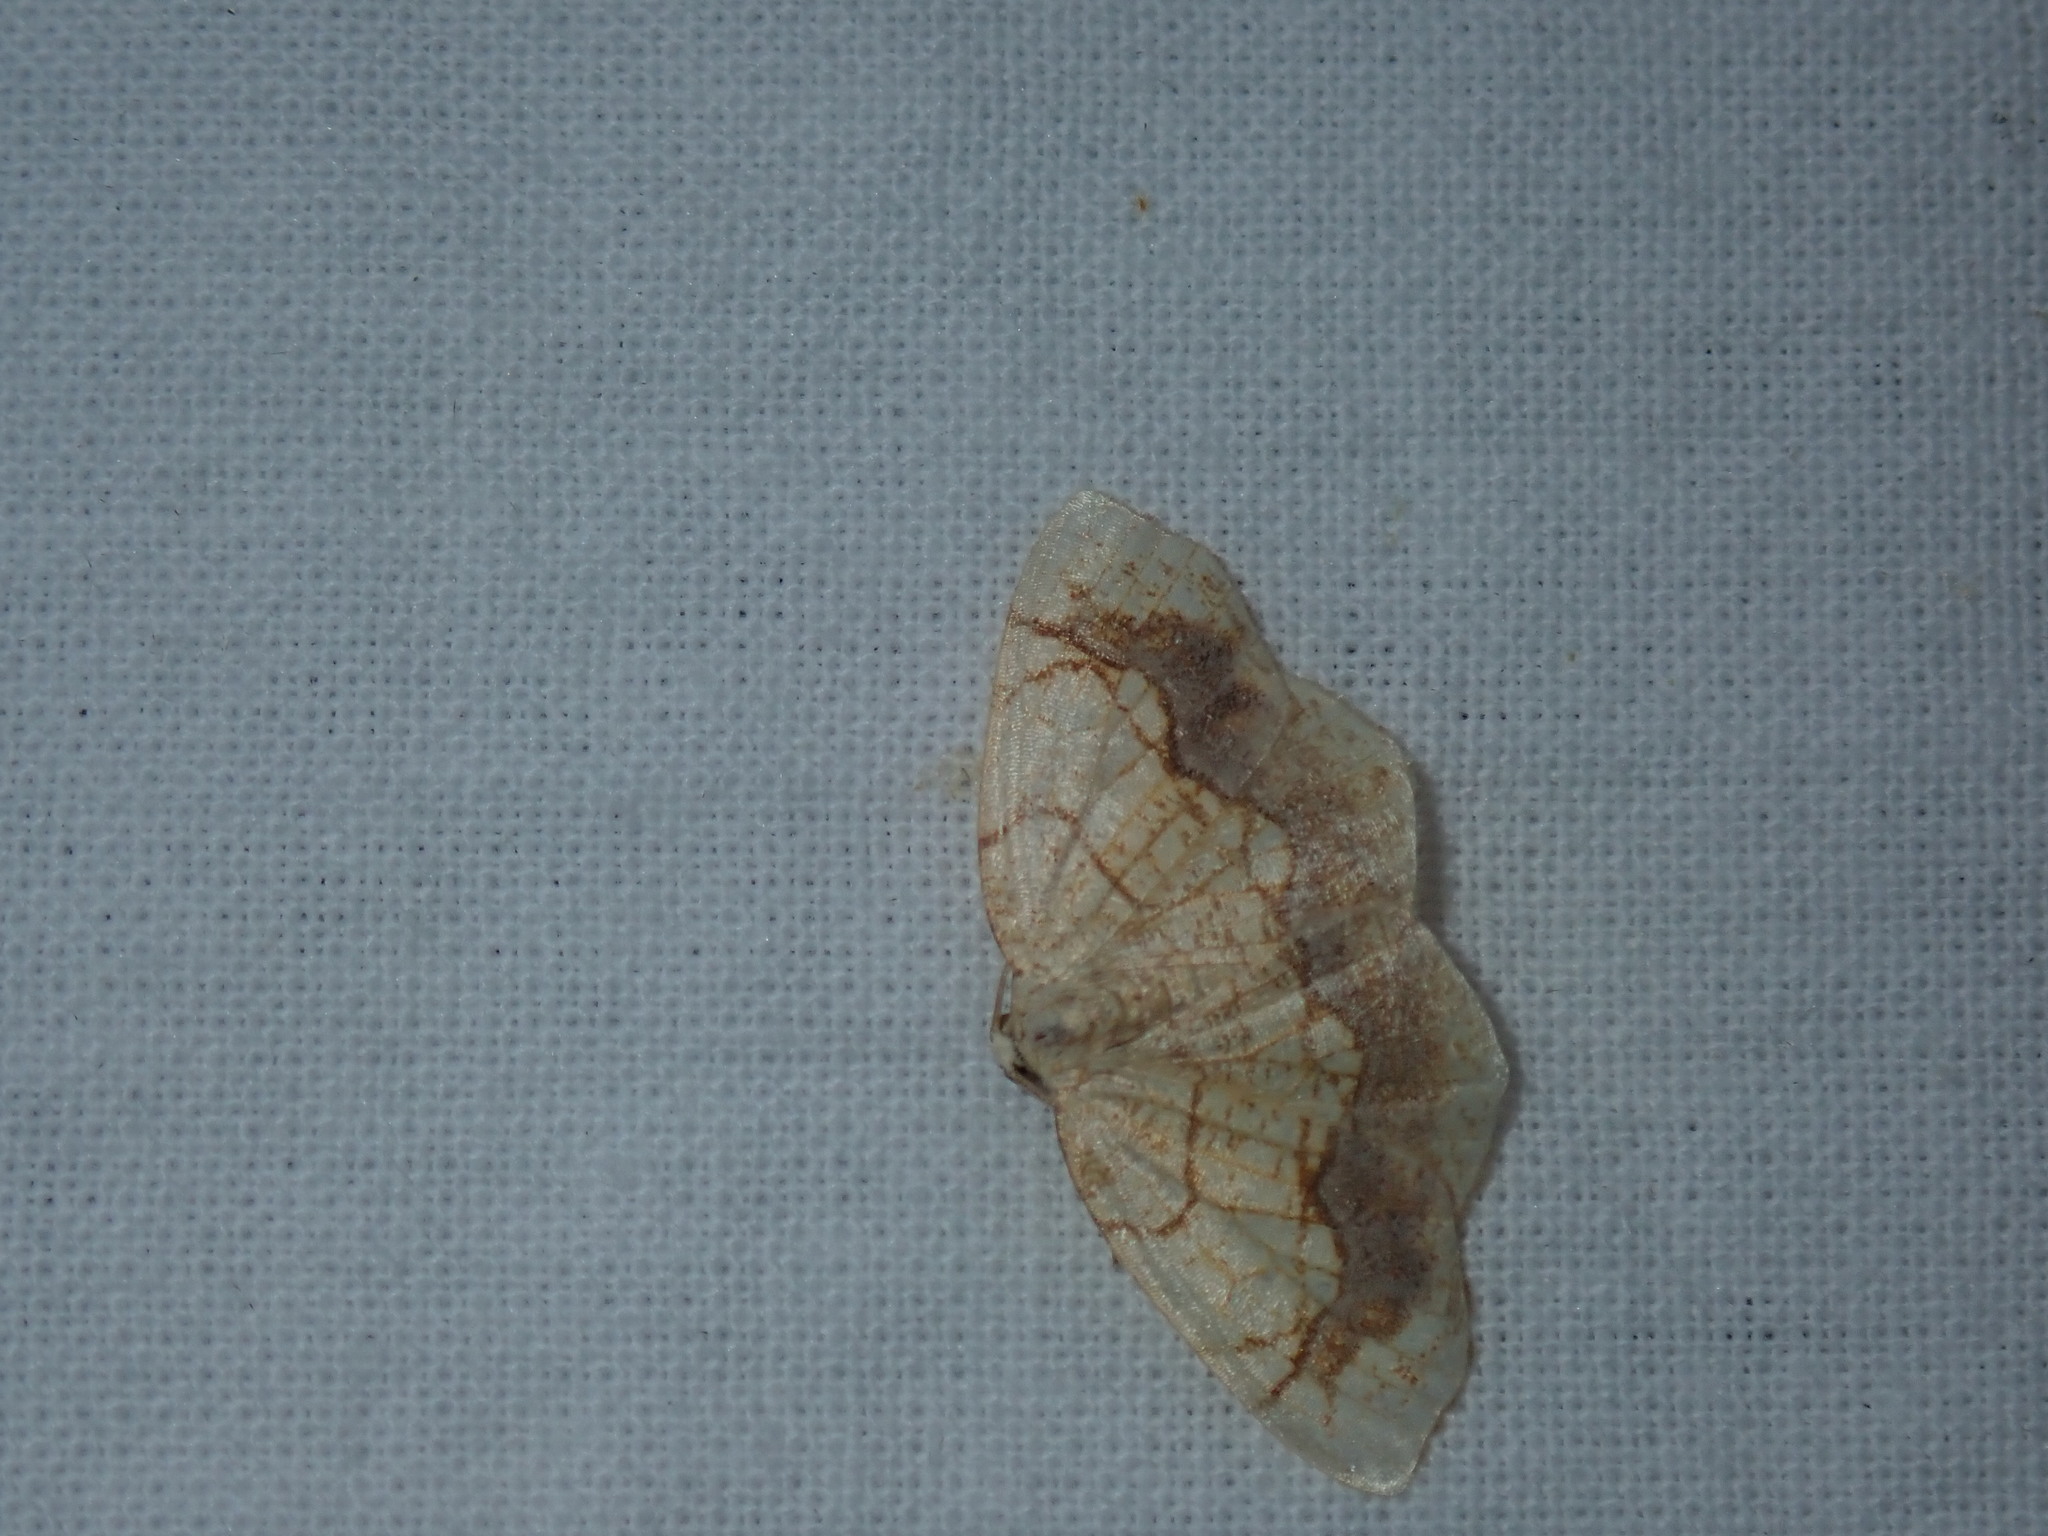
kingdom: Animalia
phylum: Arthropoda
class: Insecta
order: Lepidoptera
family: Geometridae
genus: Nematocampa
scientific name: Nematocampa resistaria
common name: Horned spanworm moth
